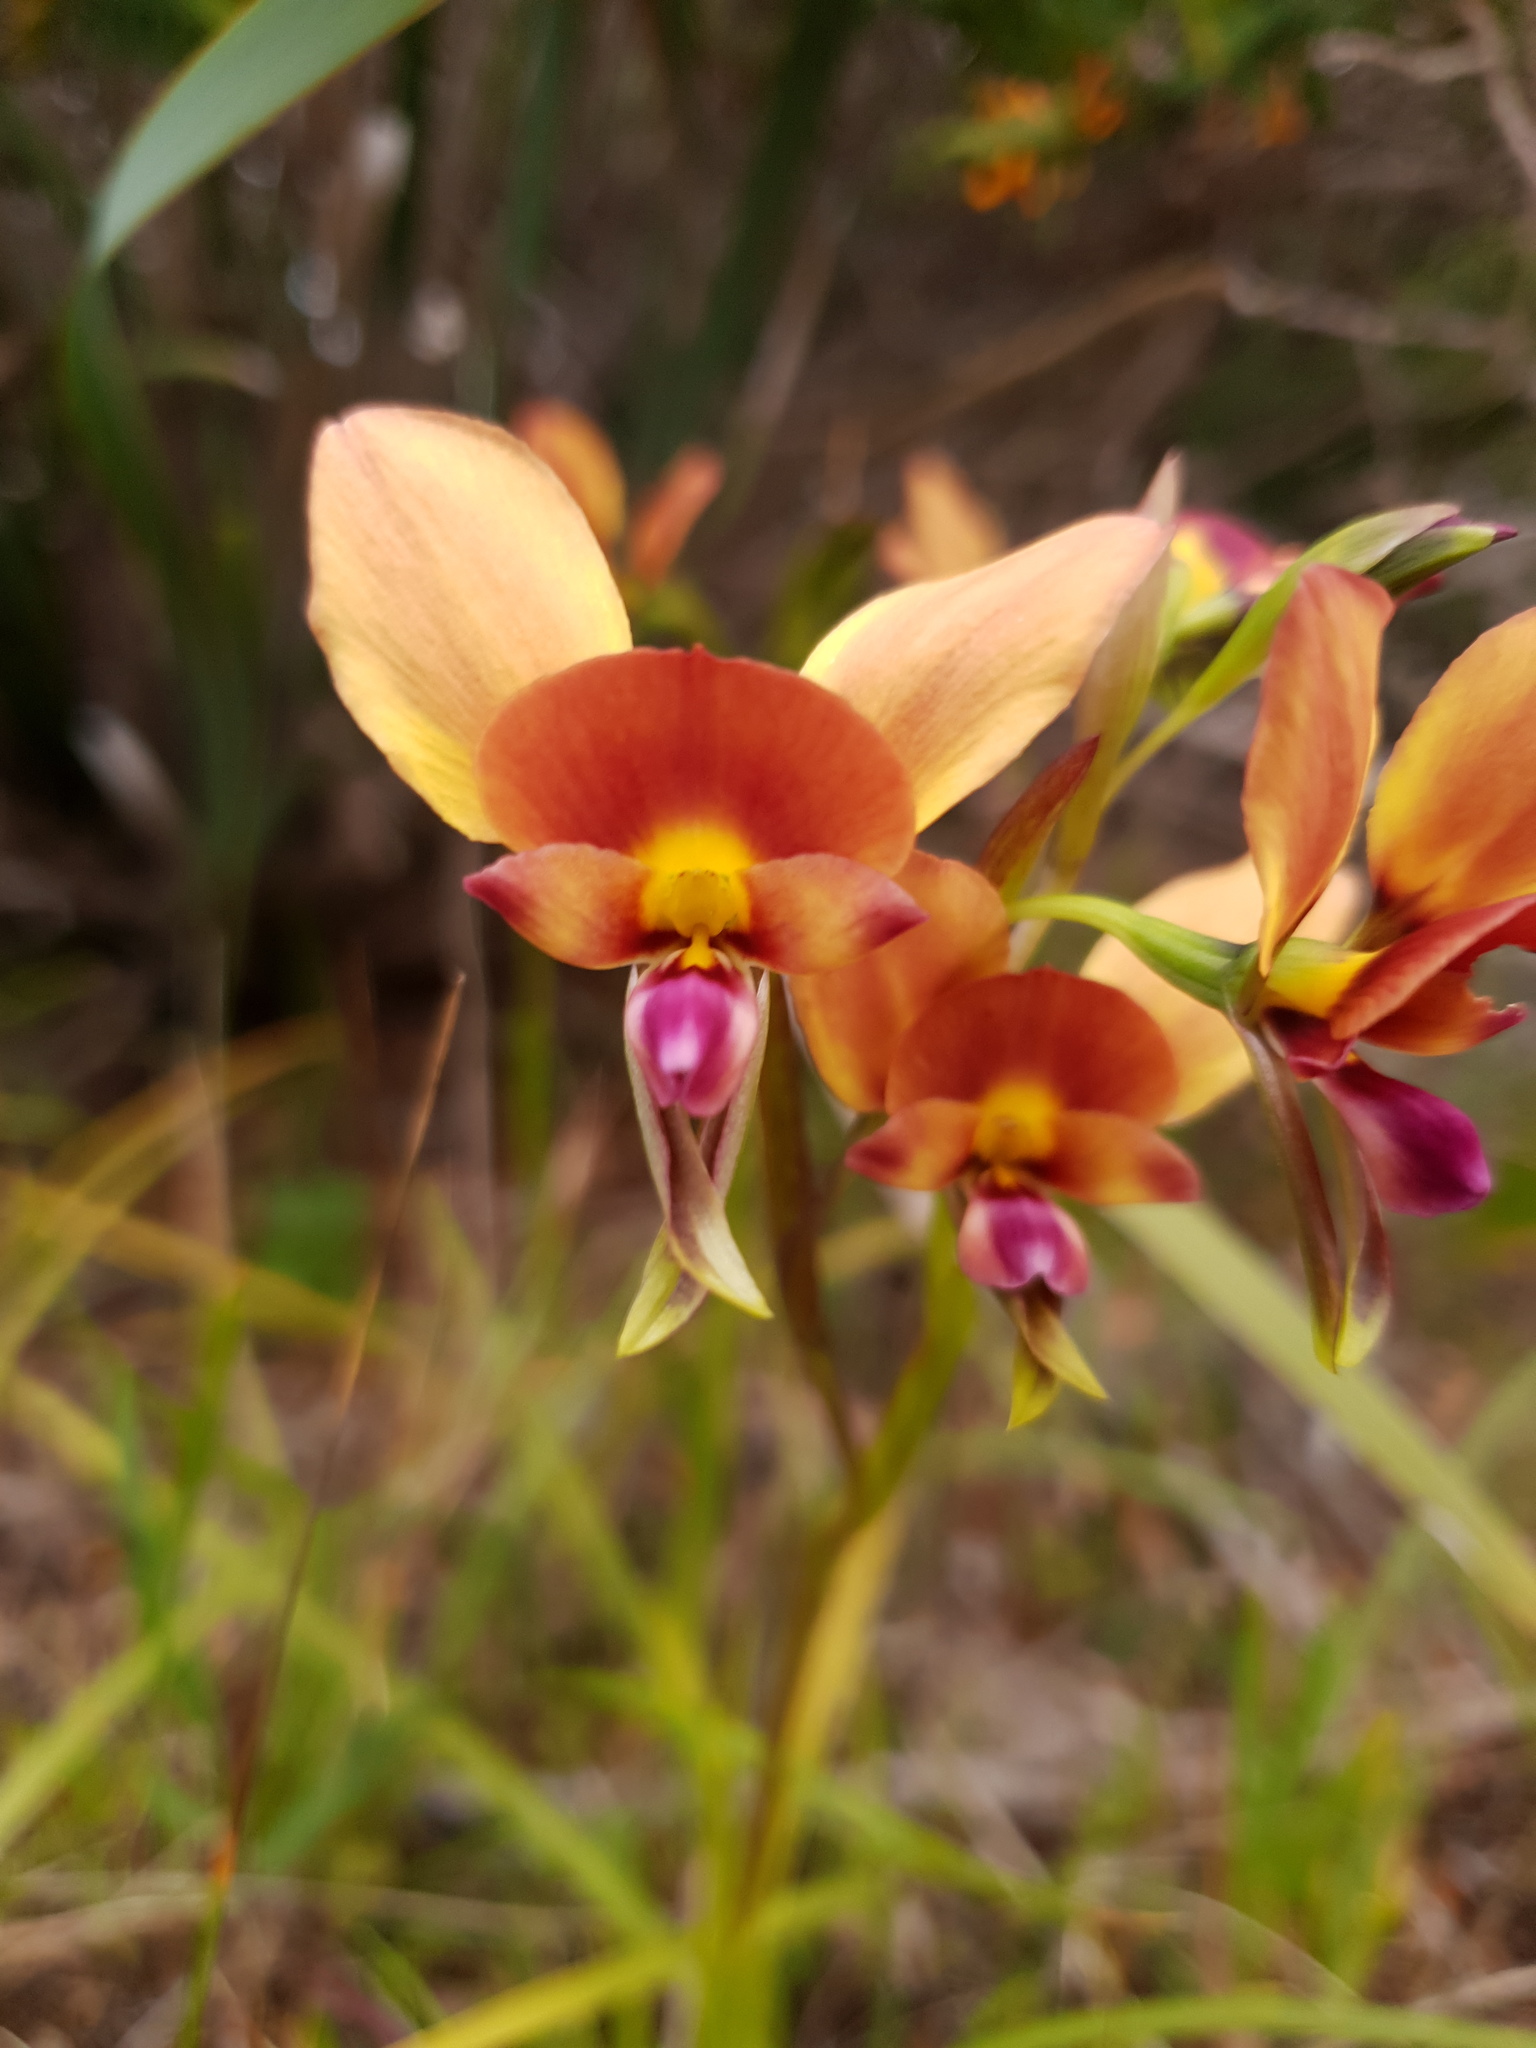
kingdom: Plantae
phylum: Tracheophyta
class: Liliopsida
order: Asparagales
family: Orchidaceae
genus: Diuris
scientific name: Diuris jonesii
